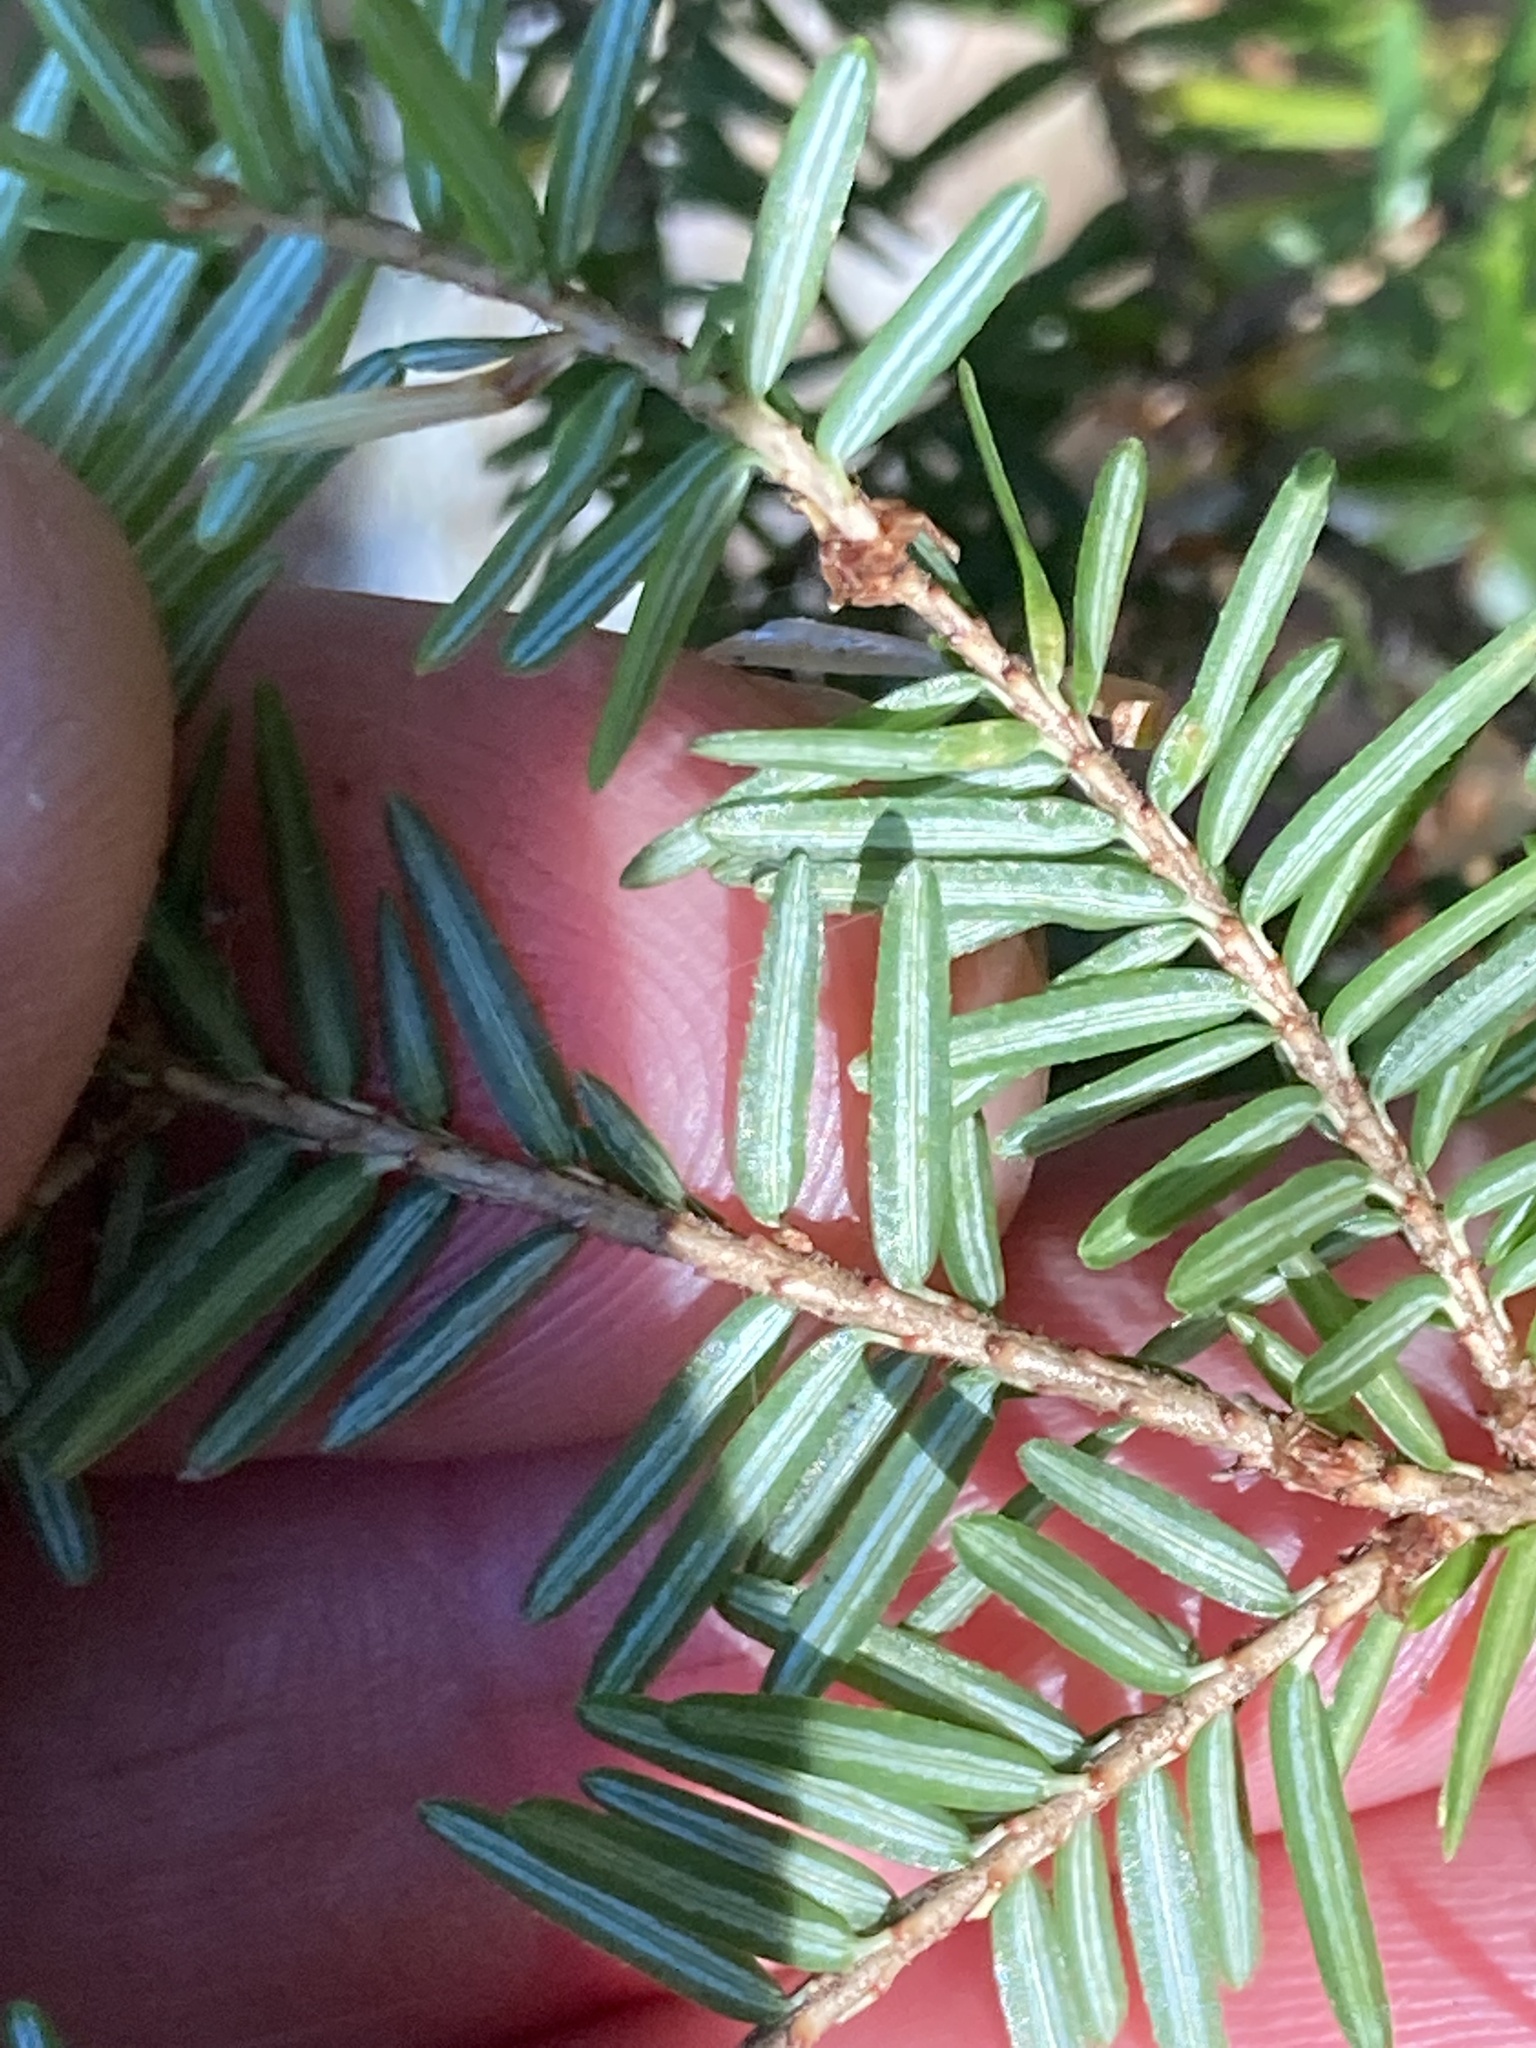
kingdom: Plantae
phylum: Tracheophyta
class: Pinopsida
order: Pinales
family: Pinaceae
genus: Tsuga
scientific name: Tsuga canadensis
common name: Eastern hemlock
